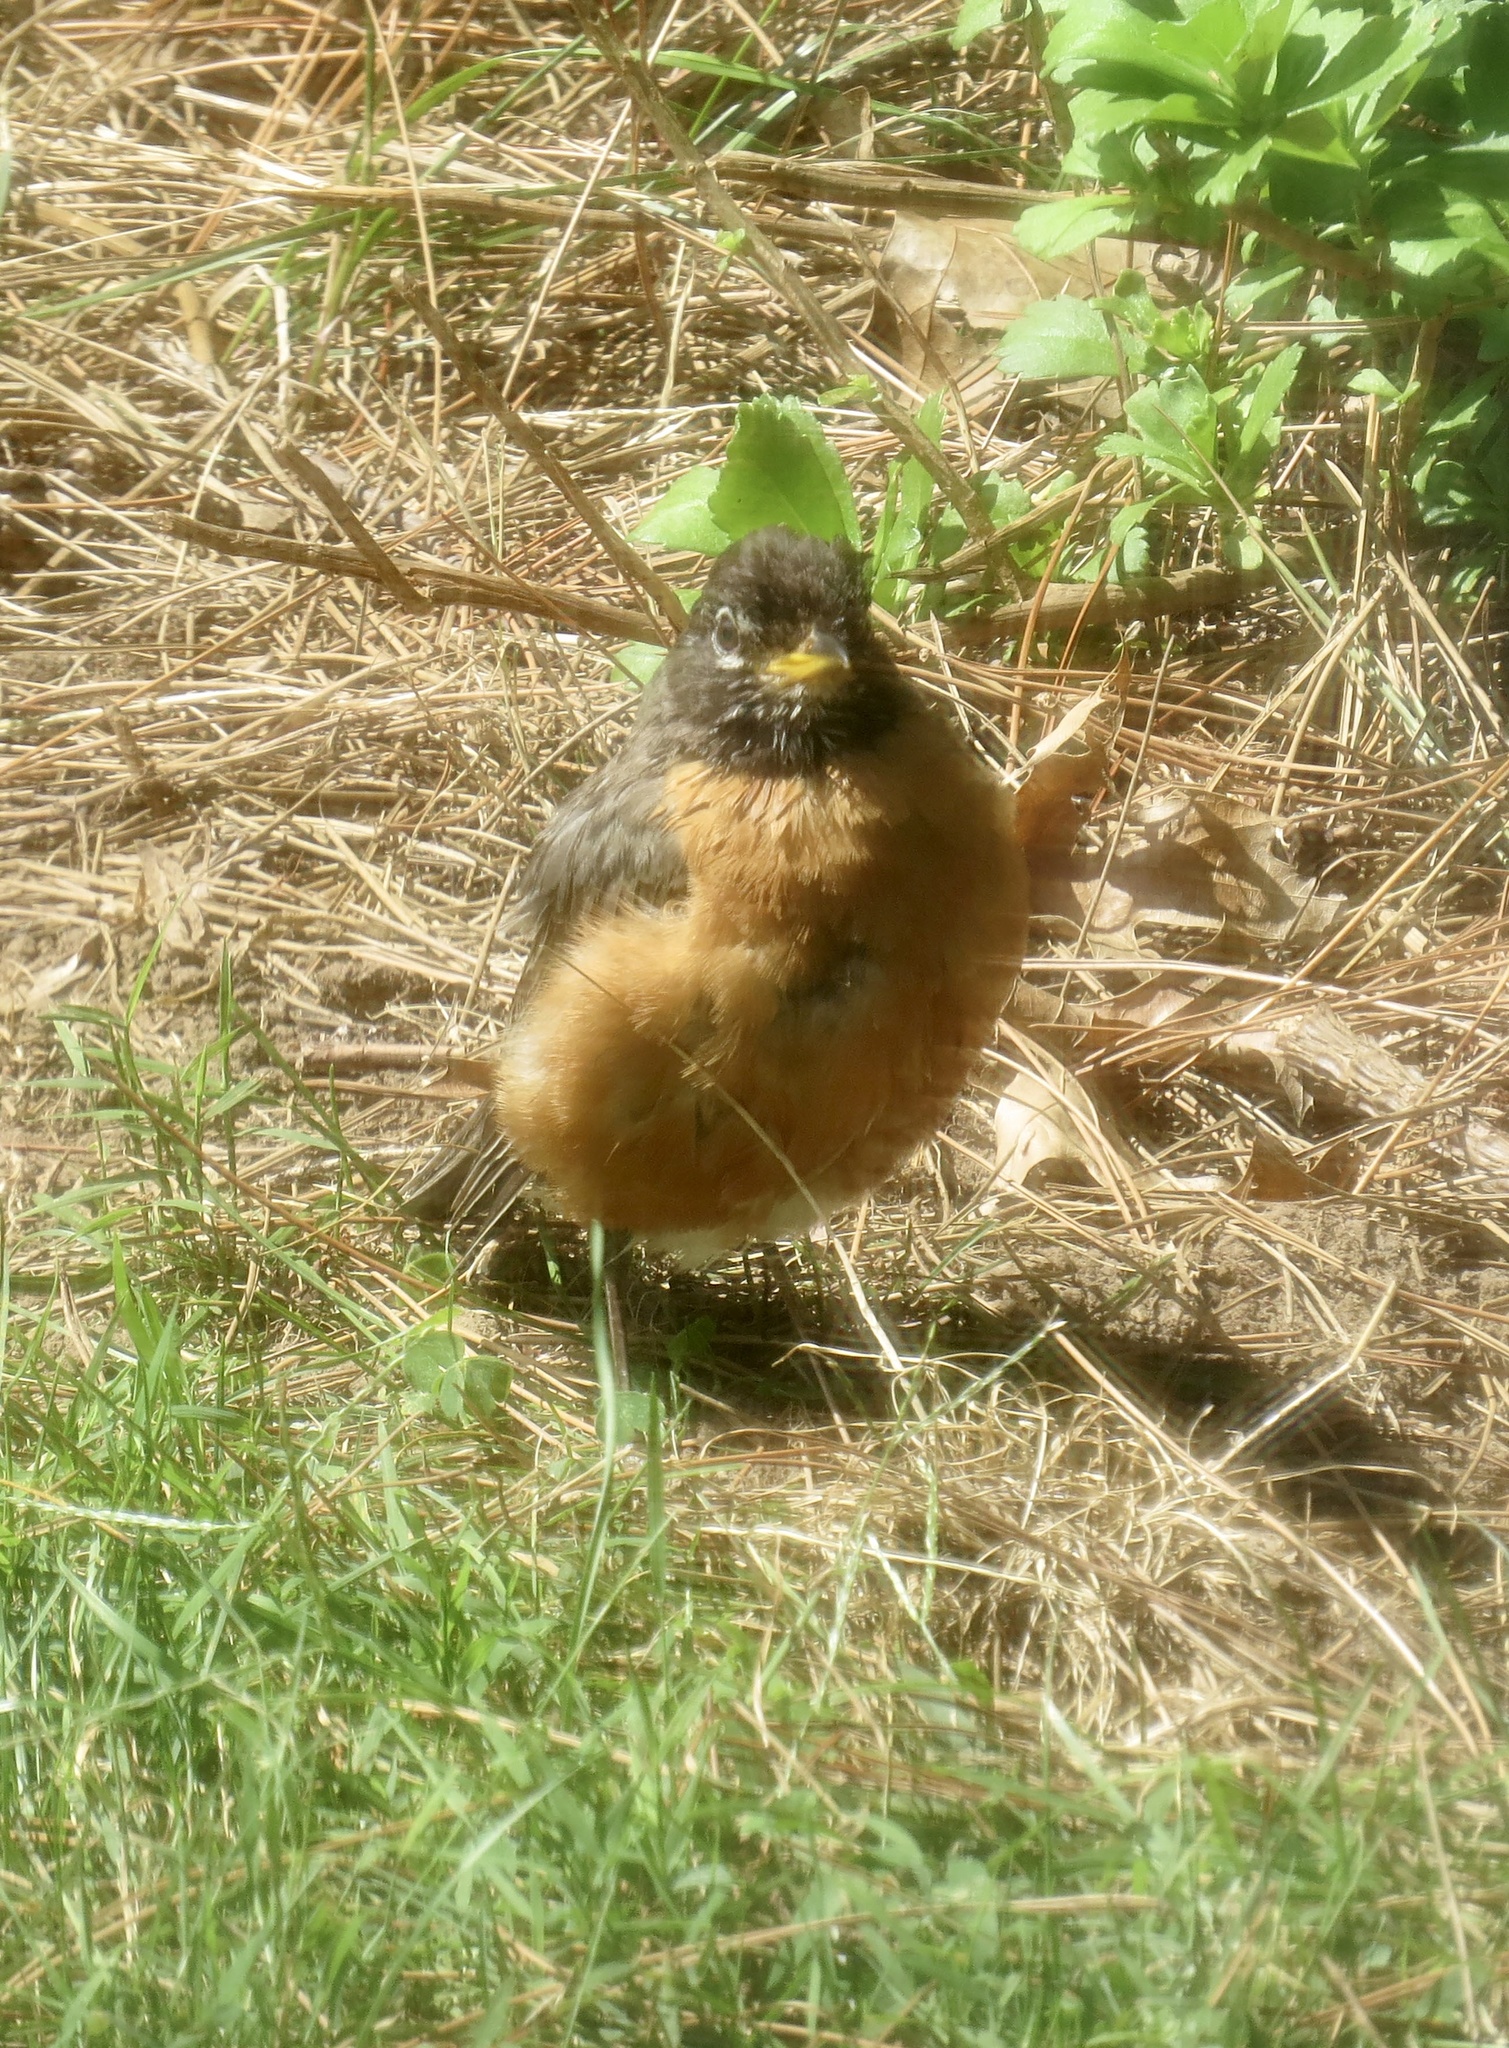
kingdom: Animalia
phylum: Chordata
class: Aves
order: Passeriformes
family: Turdidae
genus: Turdus
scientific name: Turdus migratorius
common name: American robin
